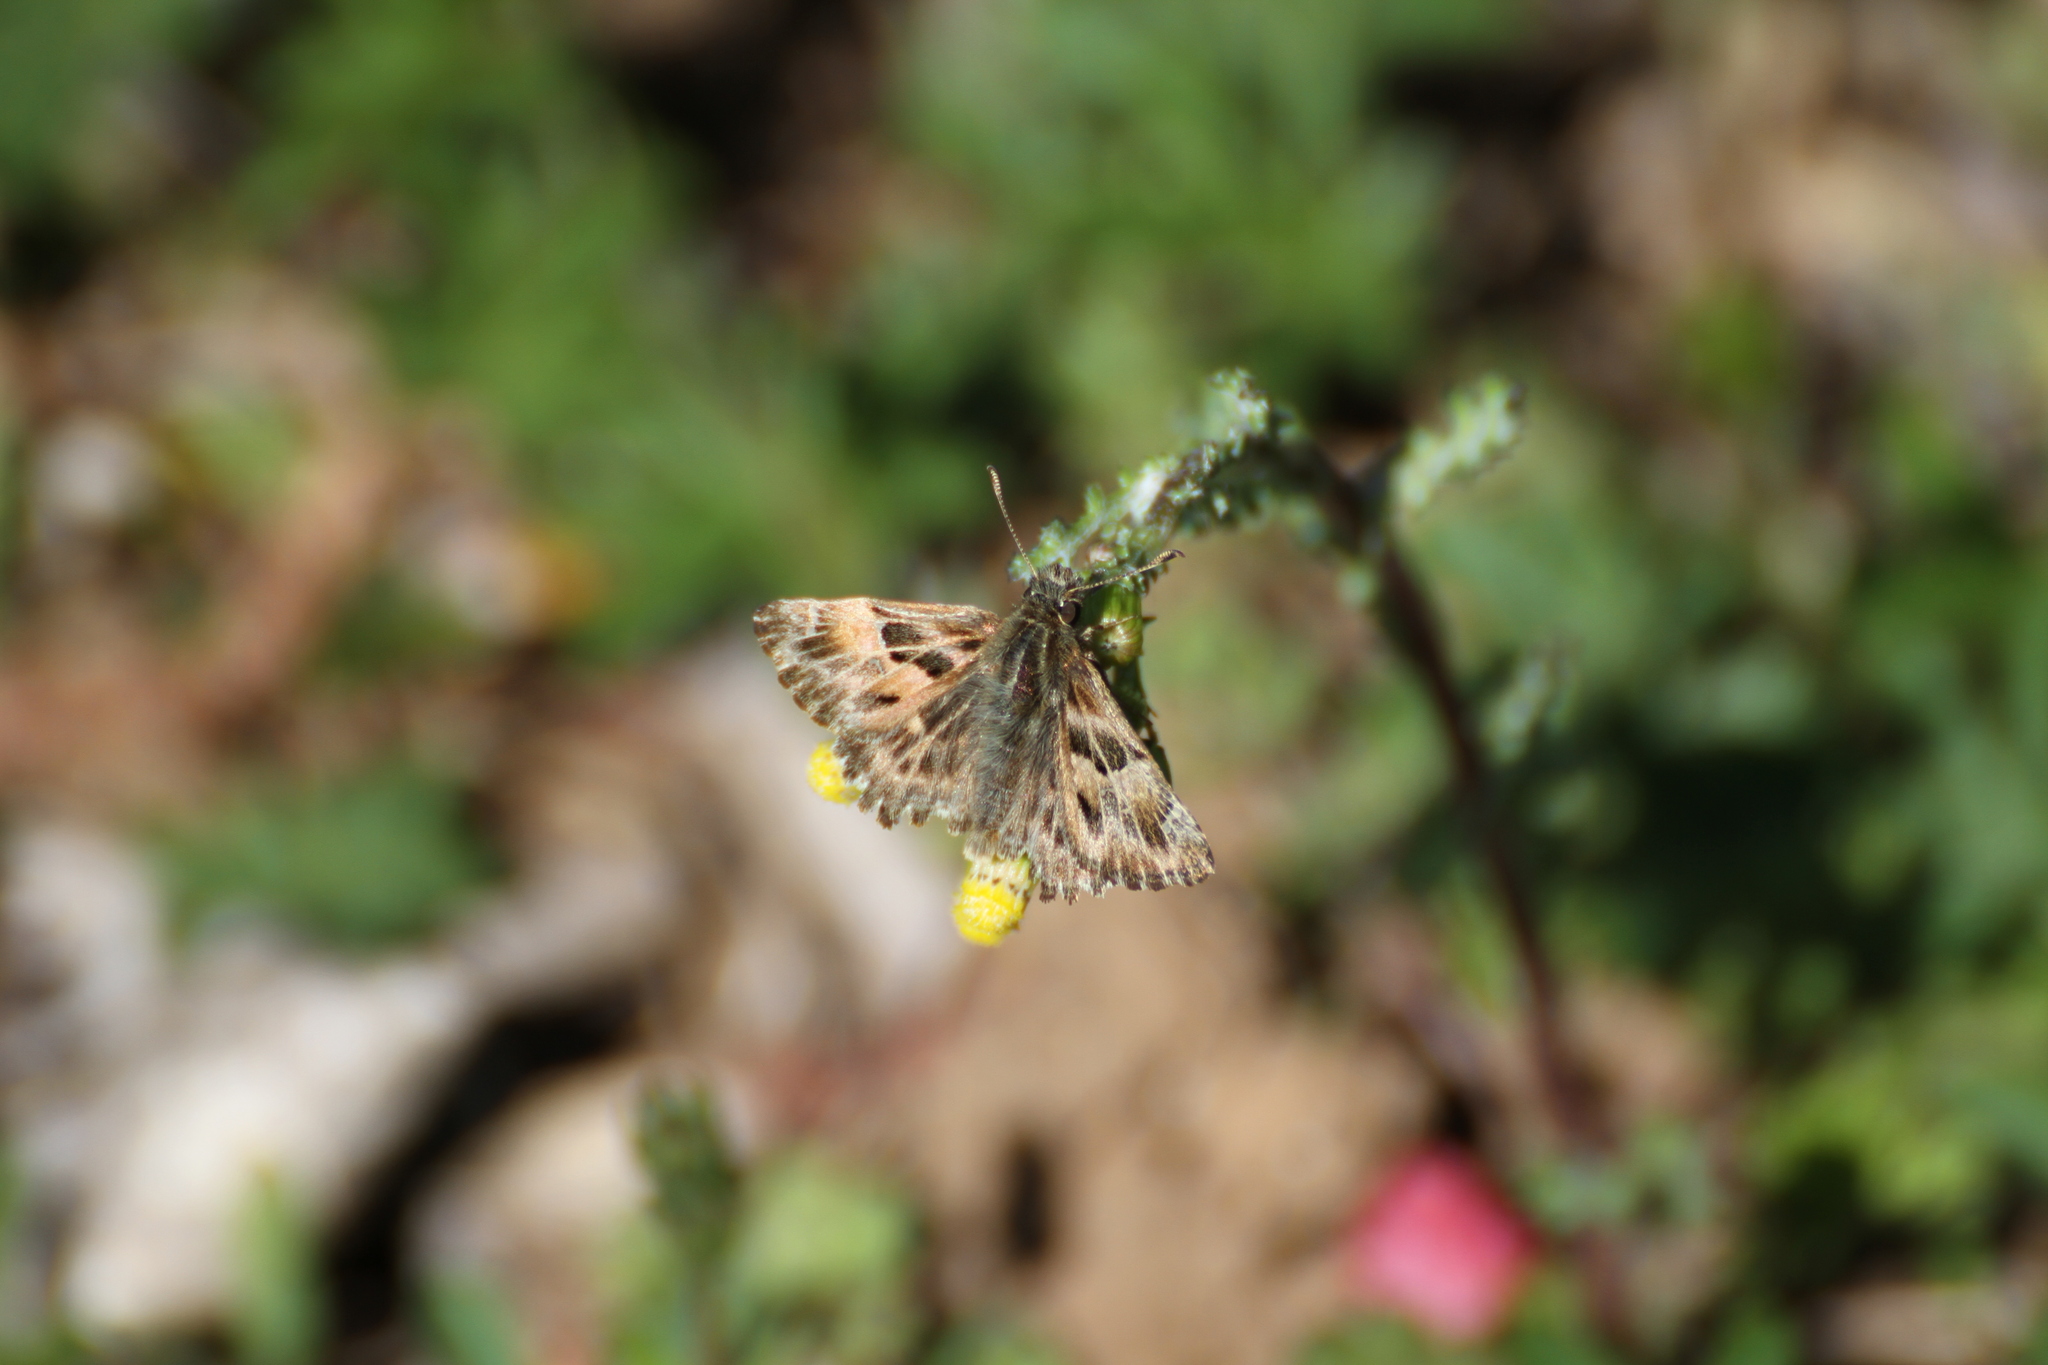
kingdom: Animalia
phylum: Arthropoda
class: Insecta
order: Lepidoptera
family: Hesperiidae
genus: Carcharodus
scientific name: Carcharodus alceae
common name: Mallow skipper
